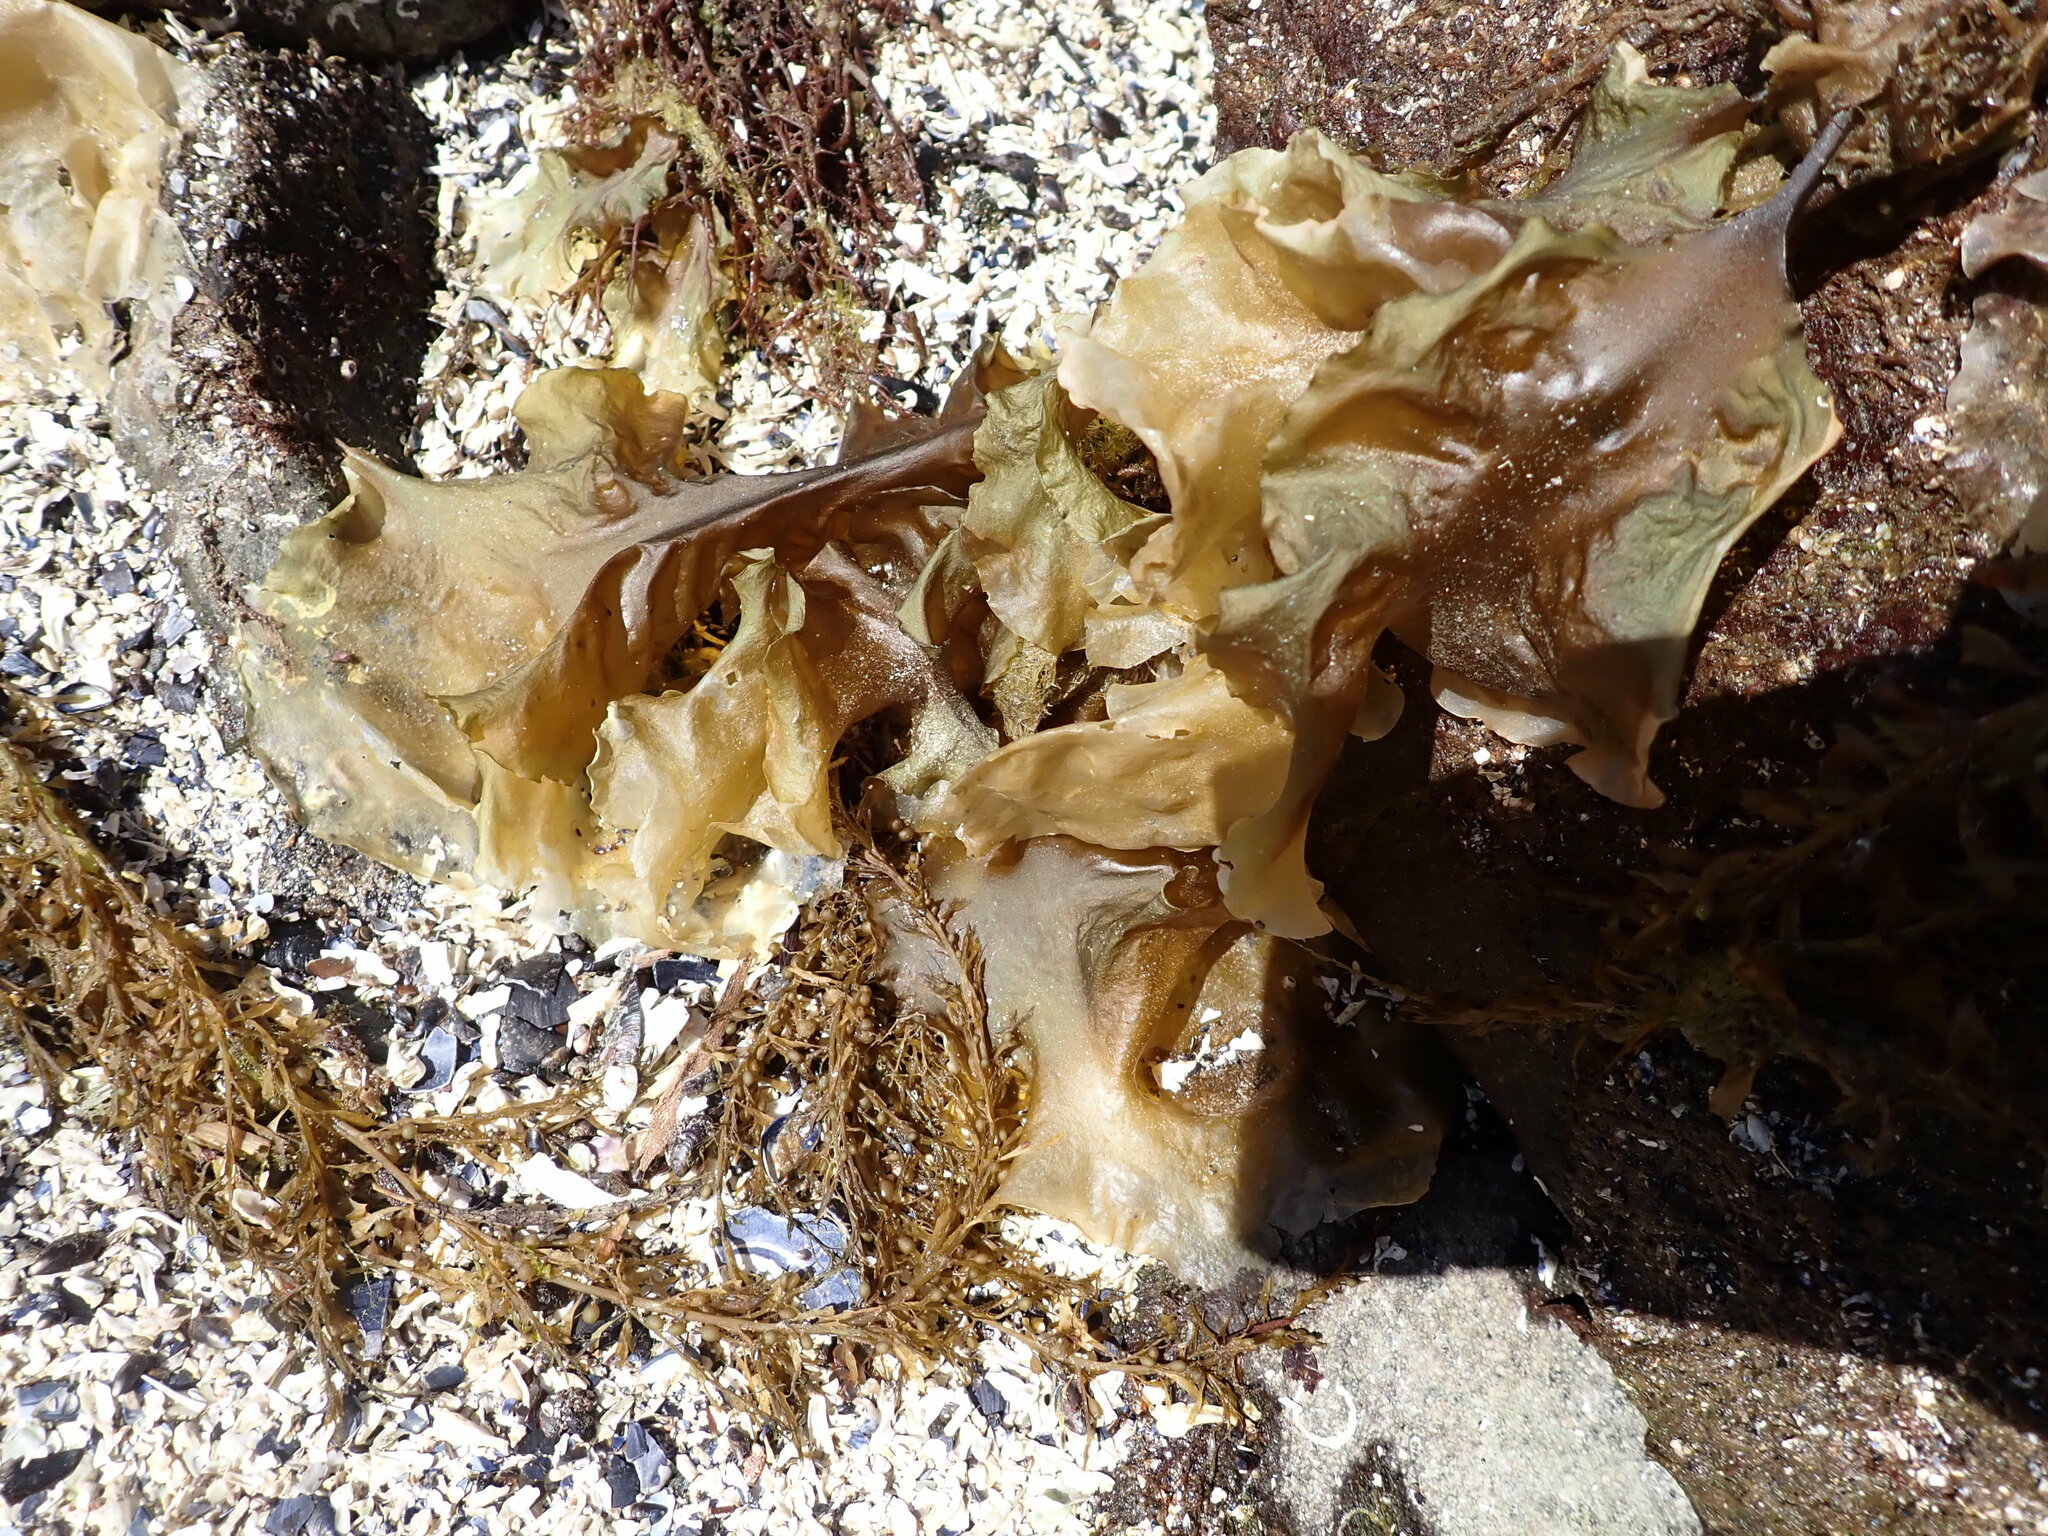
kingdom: Chromista
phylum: Ochrophyta
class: Phaeophyceae
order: Laminariales
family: Laminariaceae
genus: Saccharina
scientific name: Saccharina latissima
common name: Poor man's weather glass
